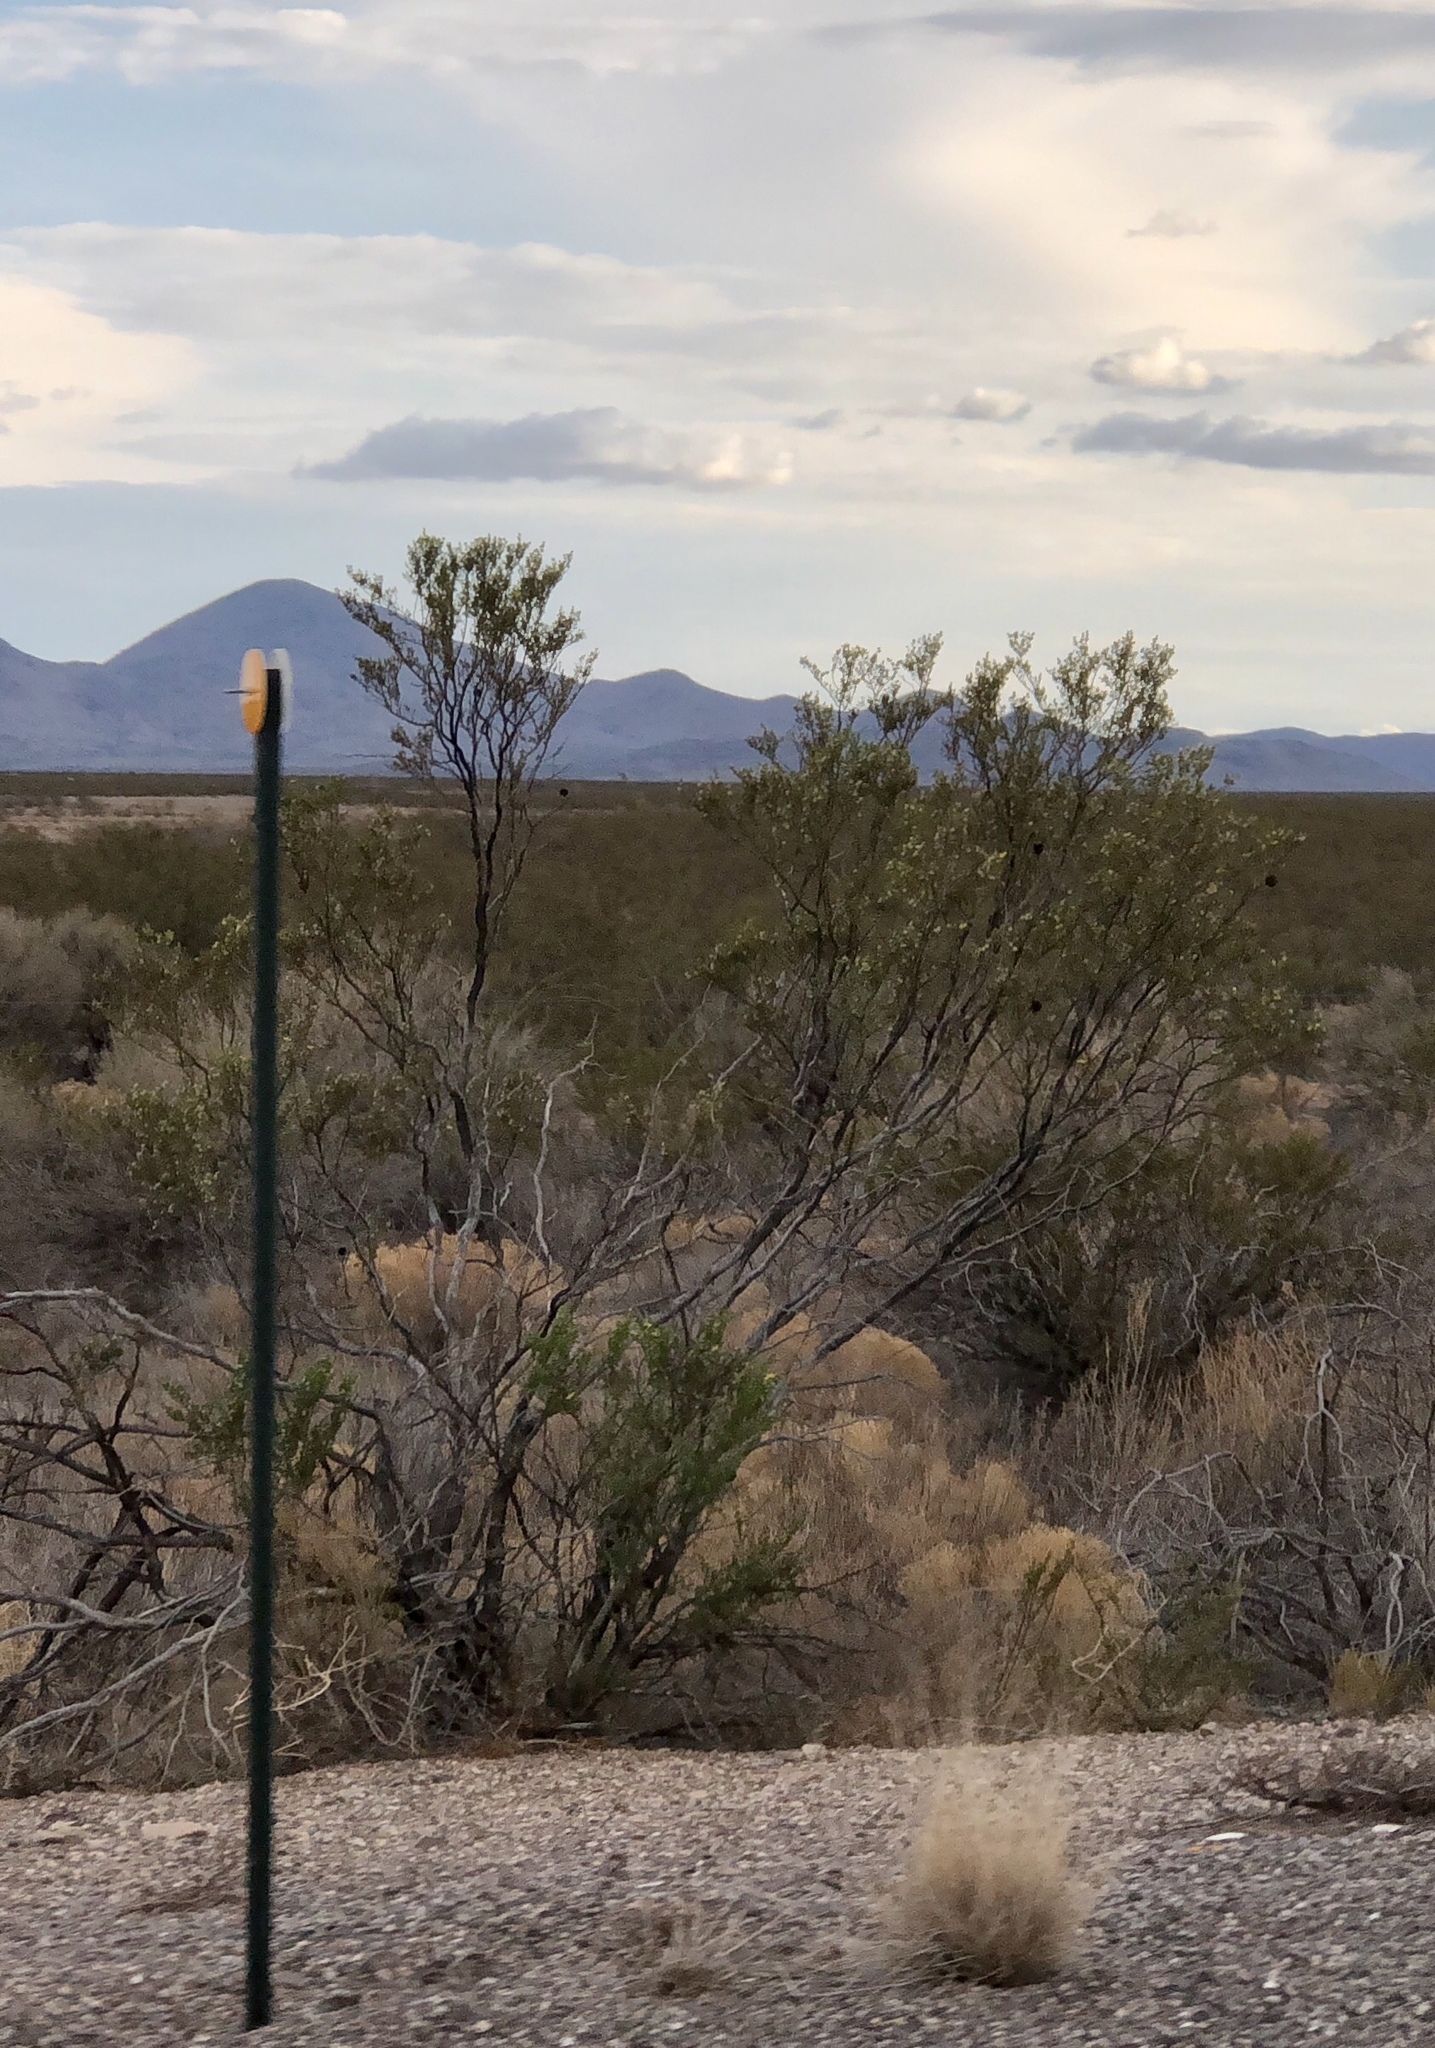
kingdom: Plantae
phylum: Tracheophyta
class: Magnoliopsida
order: Zygophyllales
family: Zygophyllaceae
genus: Larrea
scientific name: Larrea tridentata
